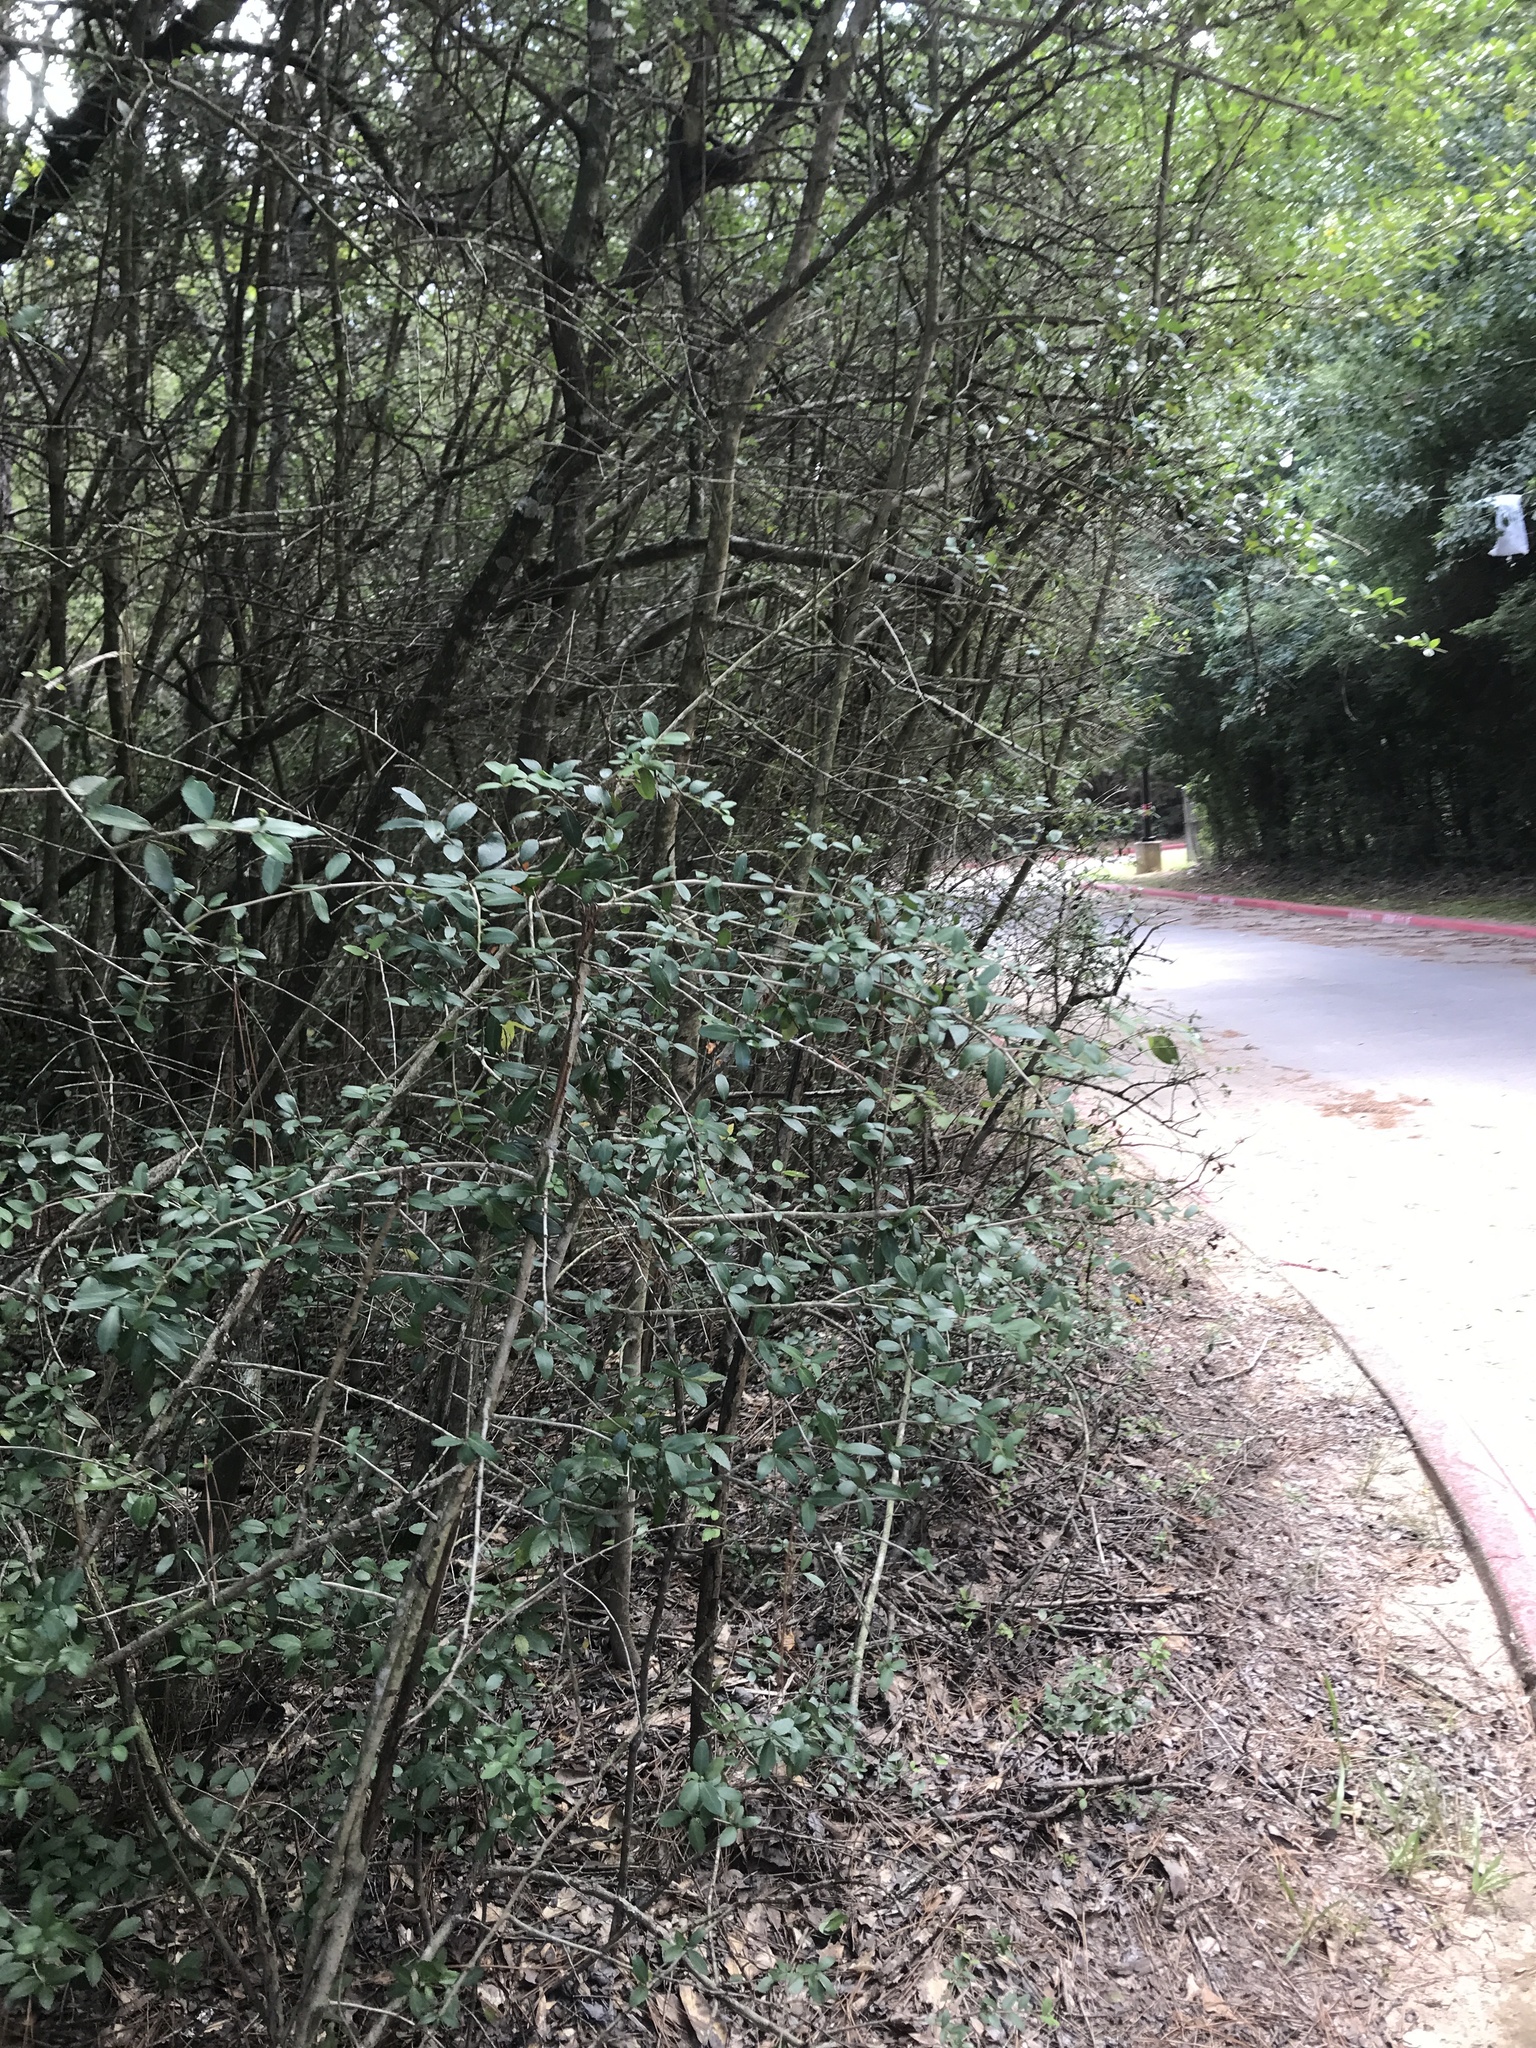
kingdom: Plantae
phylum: Tracheophyta
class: Magnoliopsida
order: Aquifoliales
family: Aquifoliaceae
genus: Ilex
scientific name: Ilex vomitoria
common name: Yaupon holly
